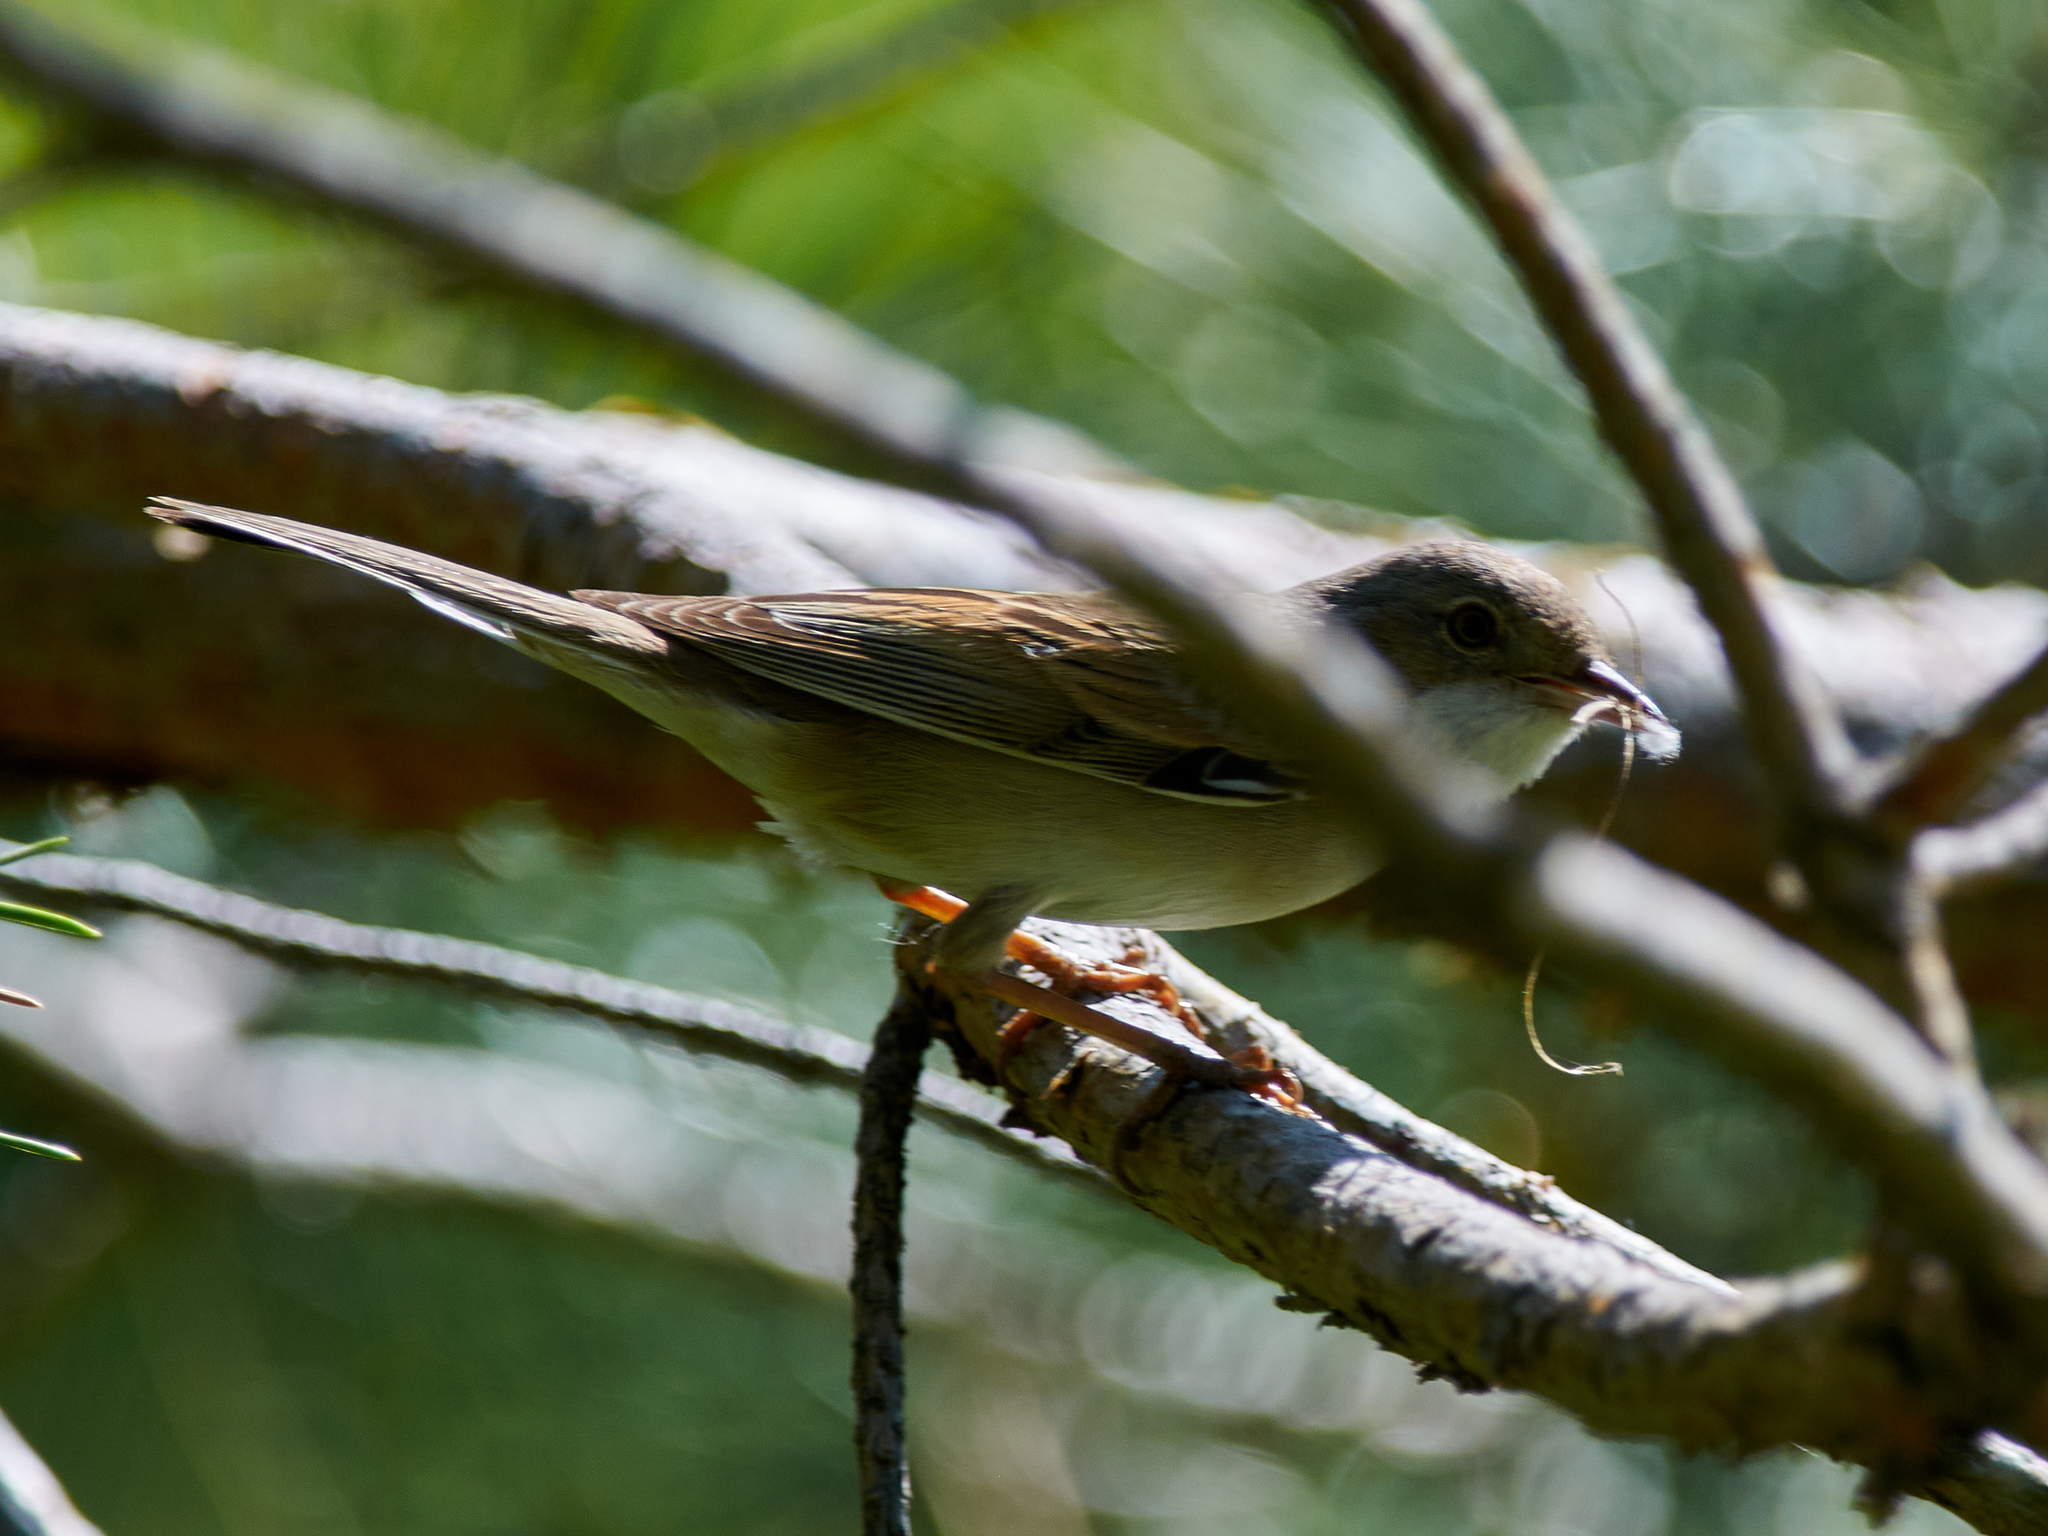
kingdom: Animalia
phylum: Chordata
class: Aves
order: Passeriformes
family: Sylviidae
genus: Sylvia
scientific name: Sylvia communis
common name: Common whitethroat
